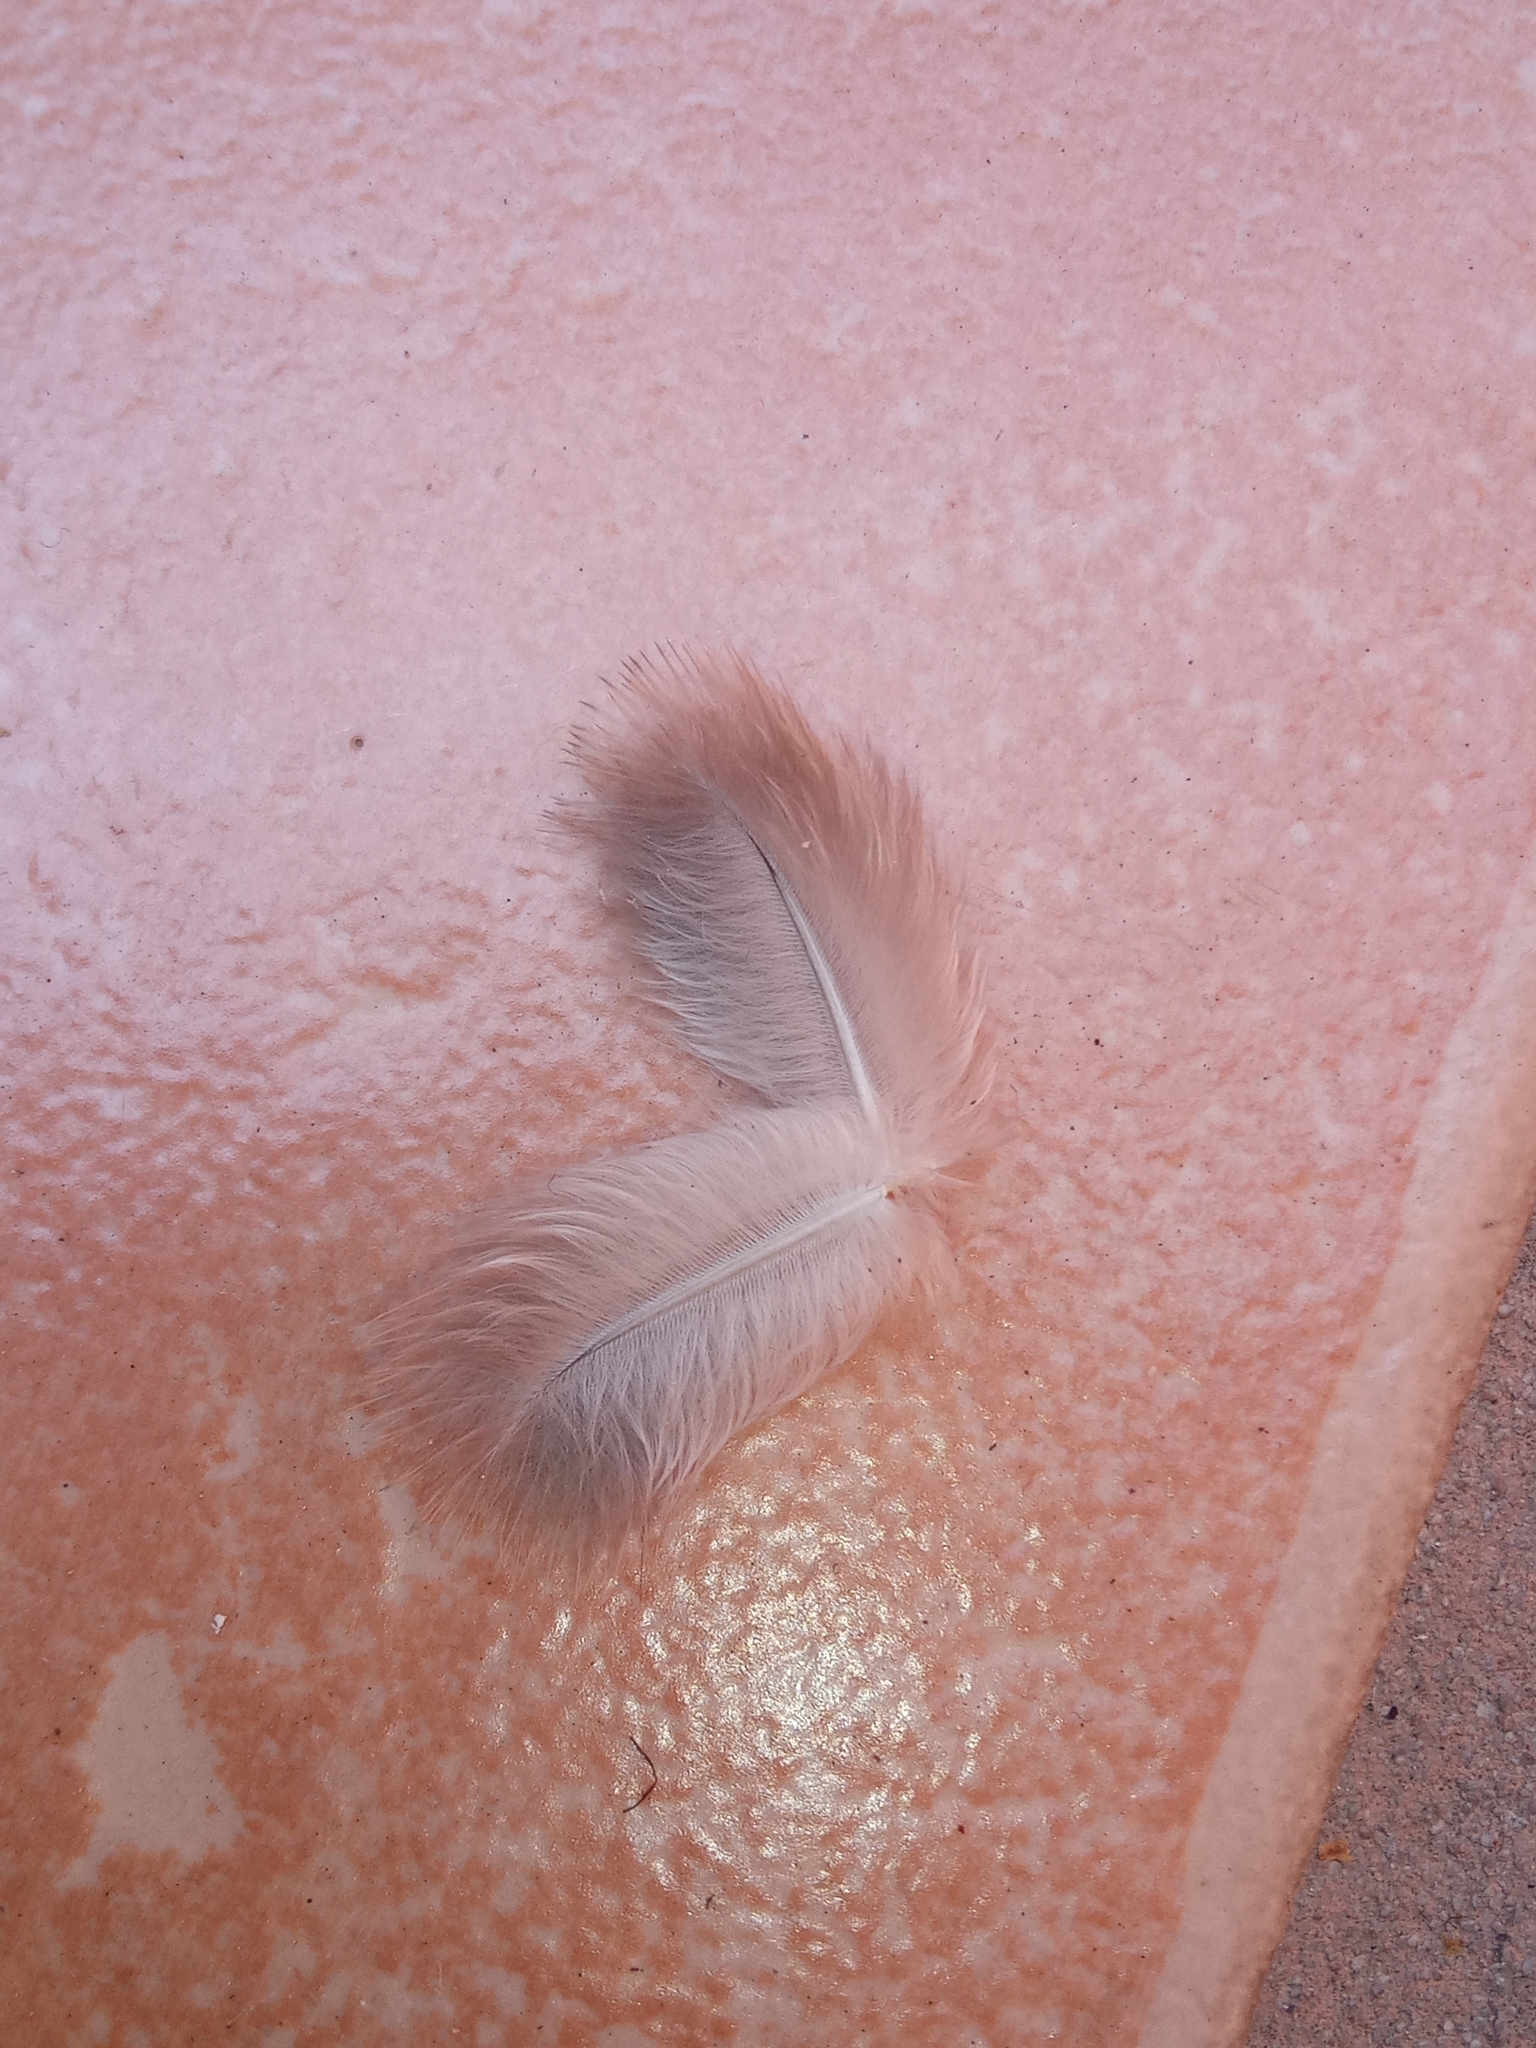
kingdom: Animalia
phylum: Chordata
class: Aves
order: Columbiformes
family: Columbidae
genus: Columbina
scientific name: Columbina inca
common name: Inca dove
